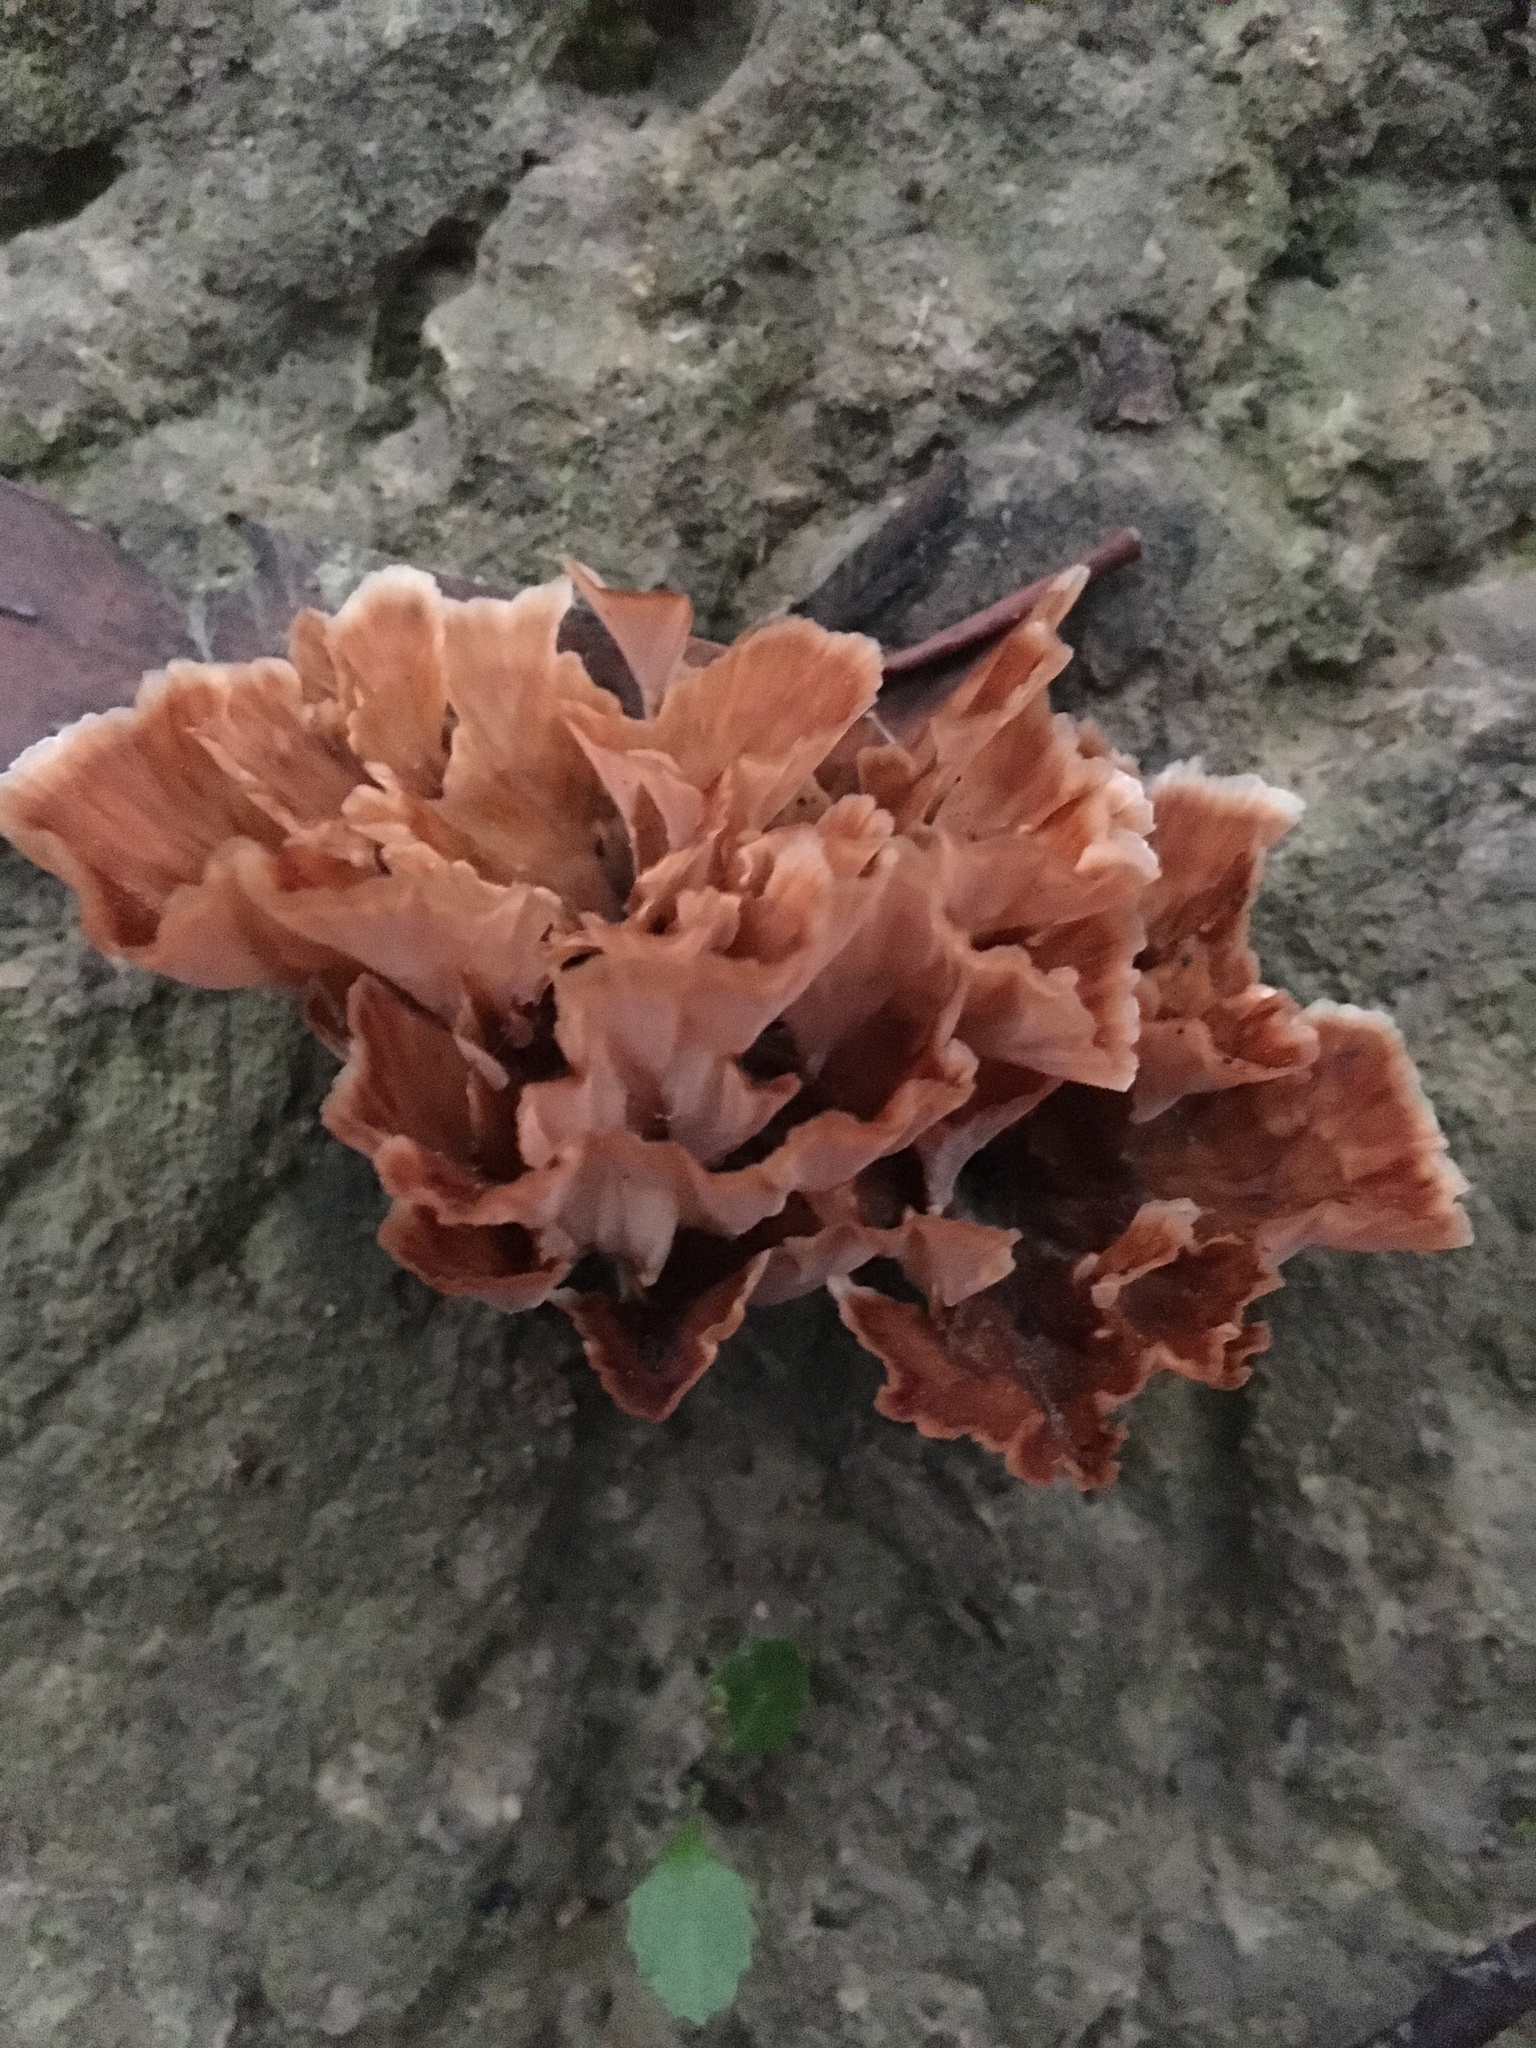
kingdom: Fungi
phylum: Basidiomycota
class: Agaricomycetes
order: Polyporales
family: Podoscyphaceae
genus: Podoscypha
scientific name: Podoscypha petalodes
